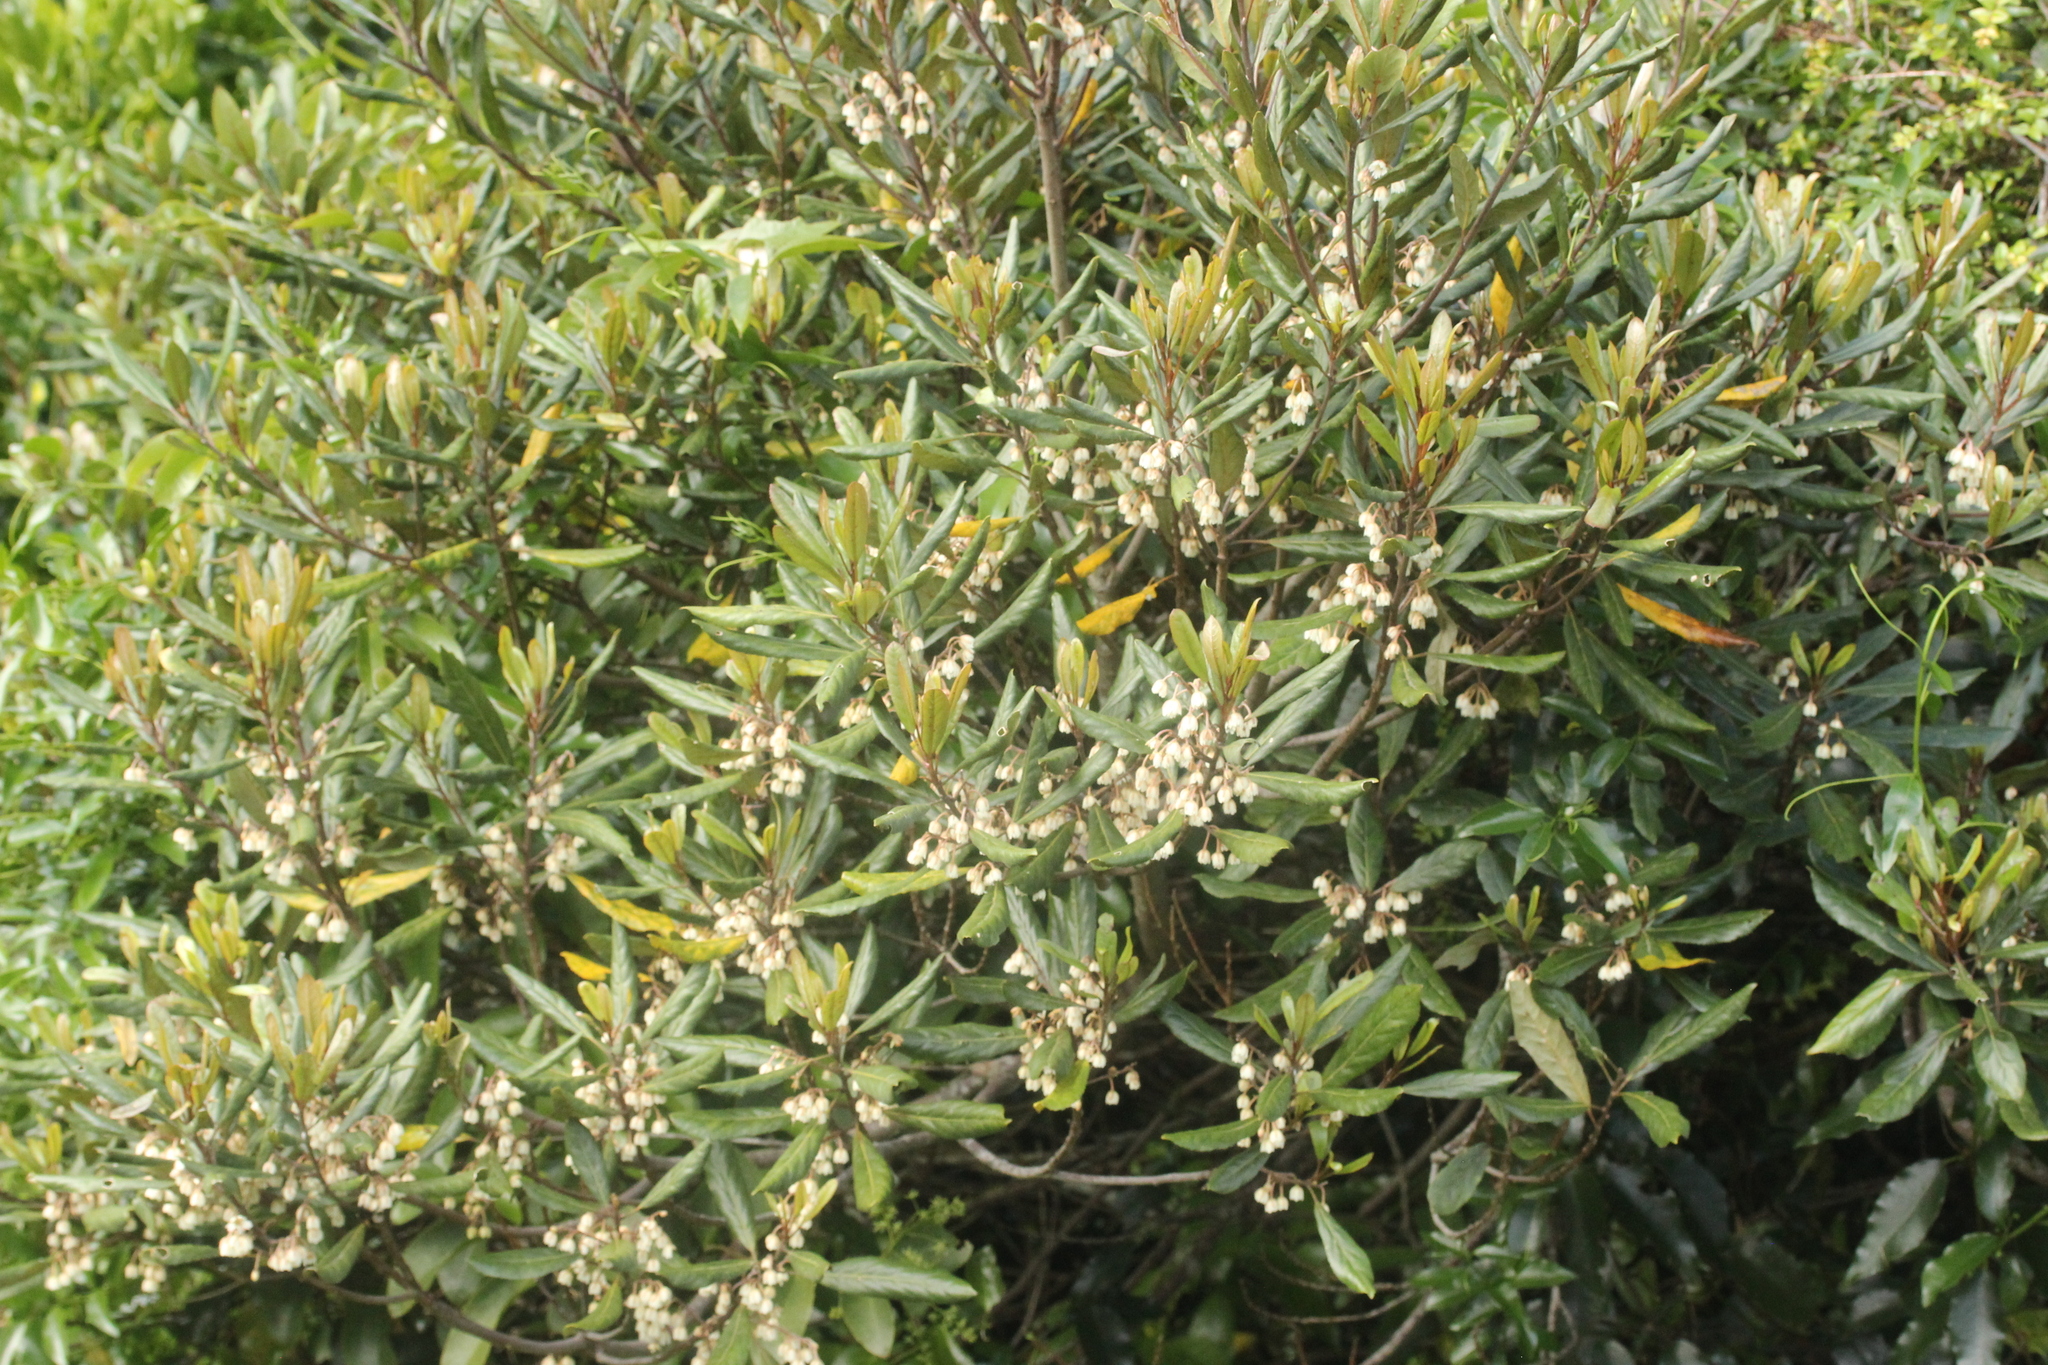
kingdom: Plantae
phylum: Tracheophyta
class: Magnoliopsida
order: Oxalidales
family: Elaeocarpaceae
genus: Elaeocarpus
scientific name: Elaeocarpus dentatus
